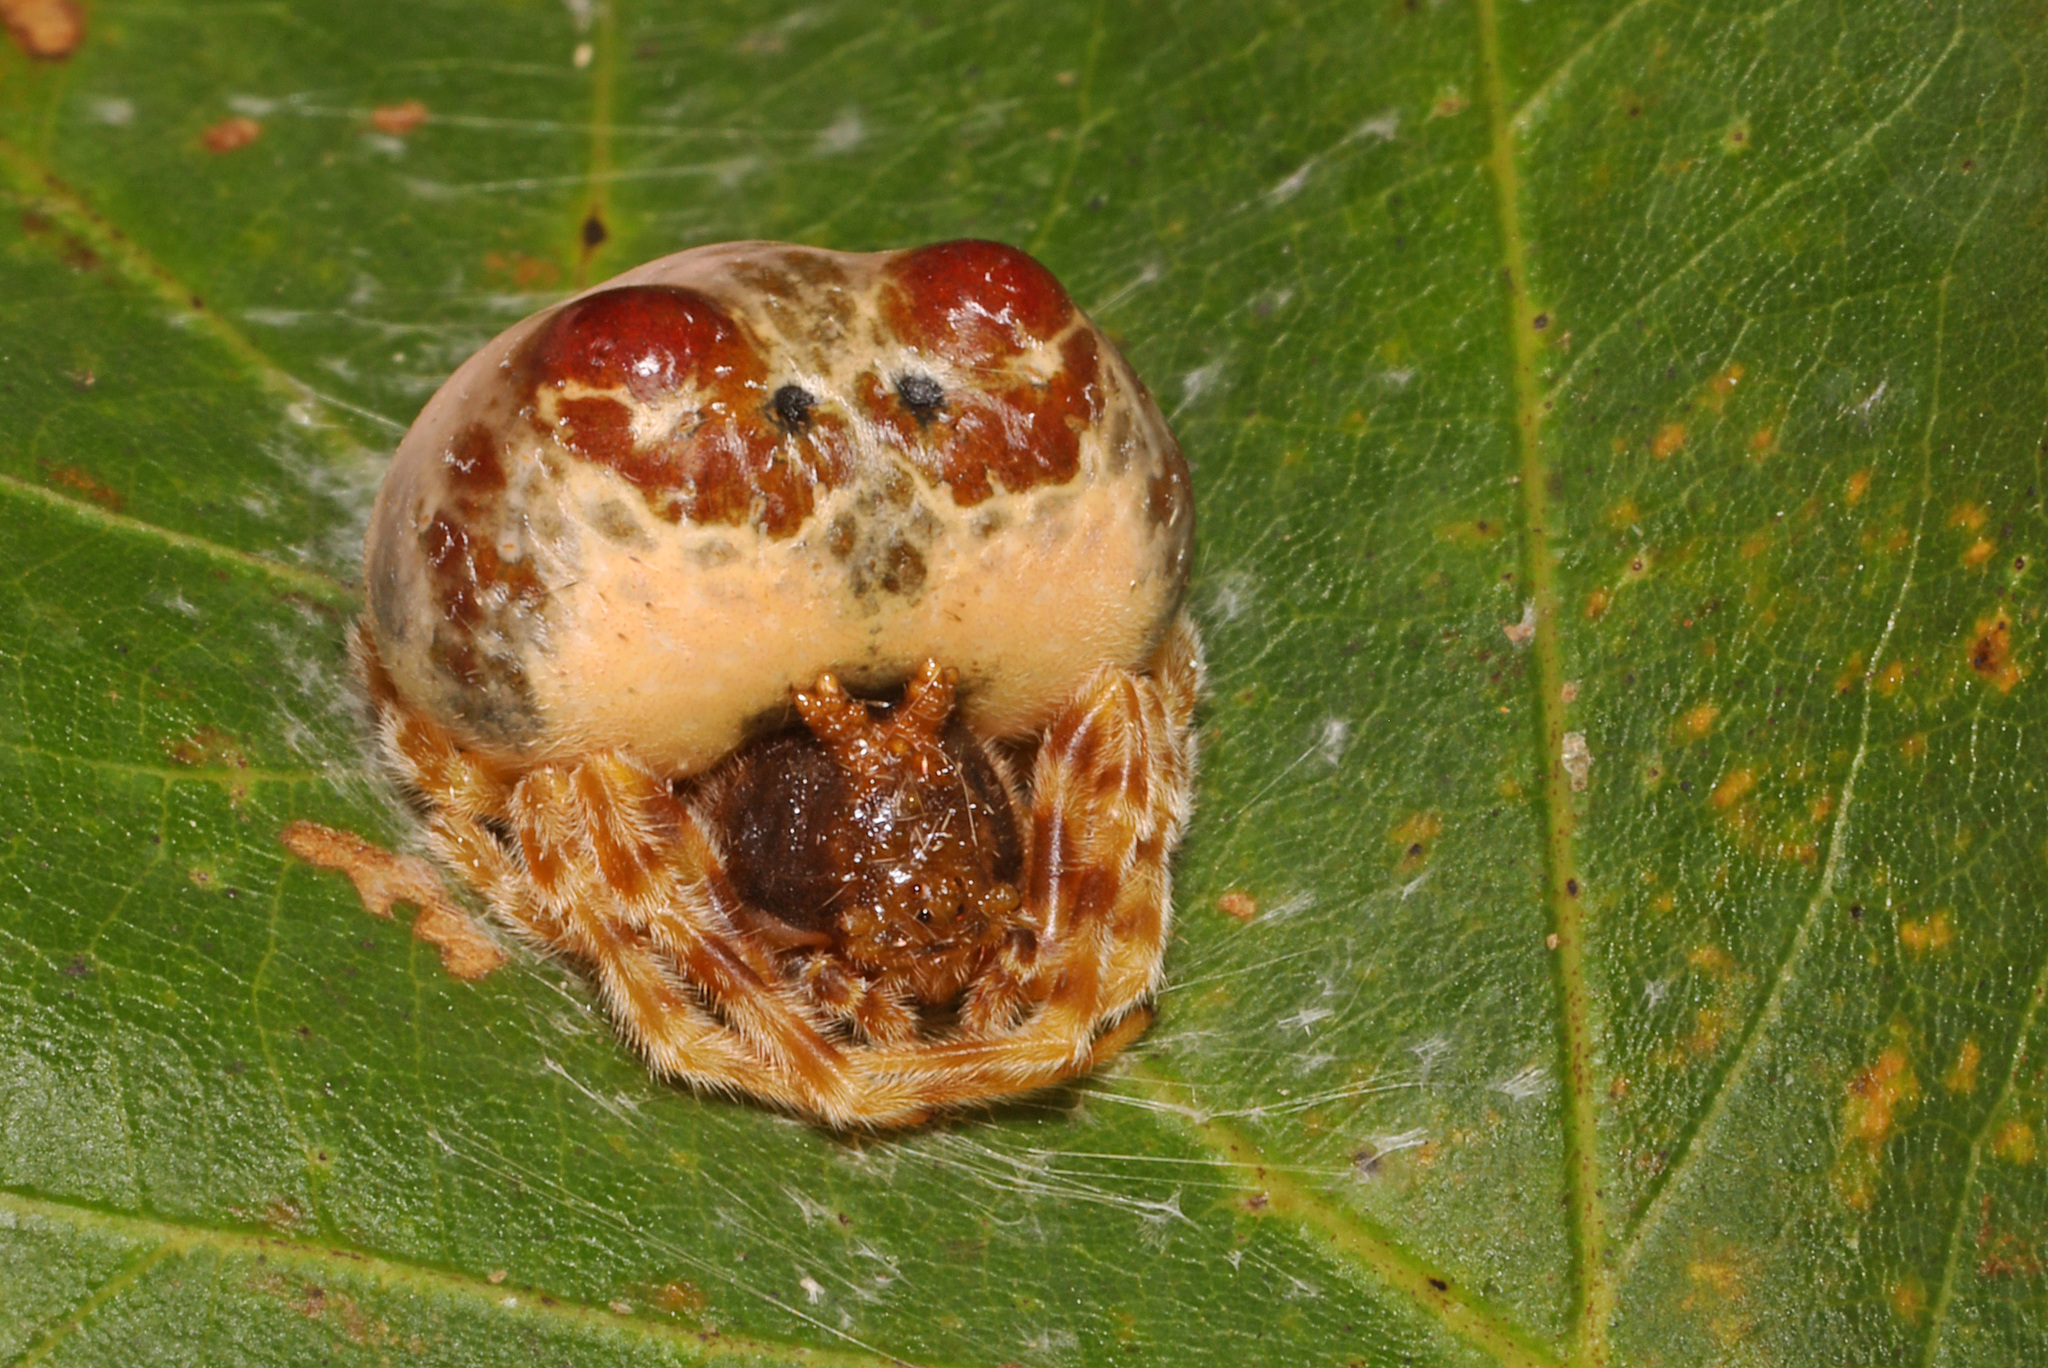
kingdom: Animalia
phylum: Arthropoda
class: Arachnida
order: Araneae
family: Araneidae
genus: Mastophora
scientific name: Mastophora hutchinsoni
